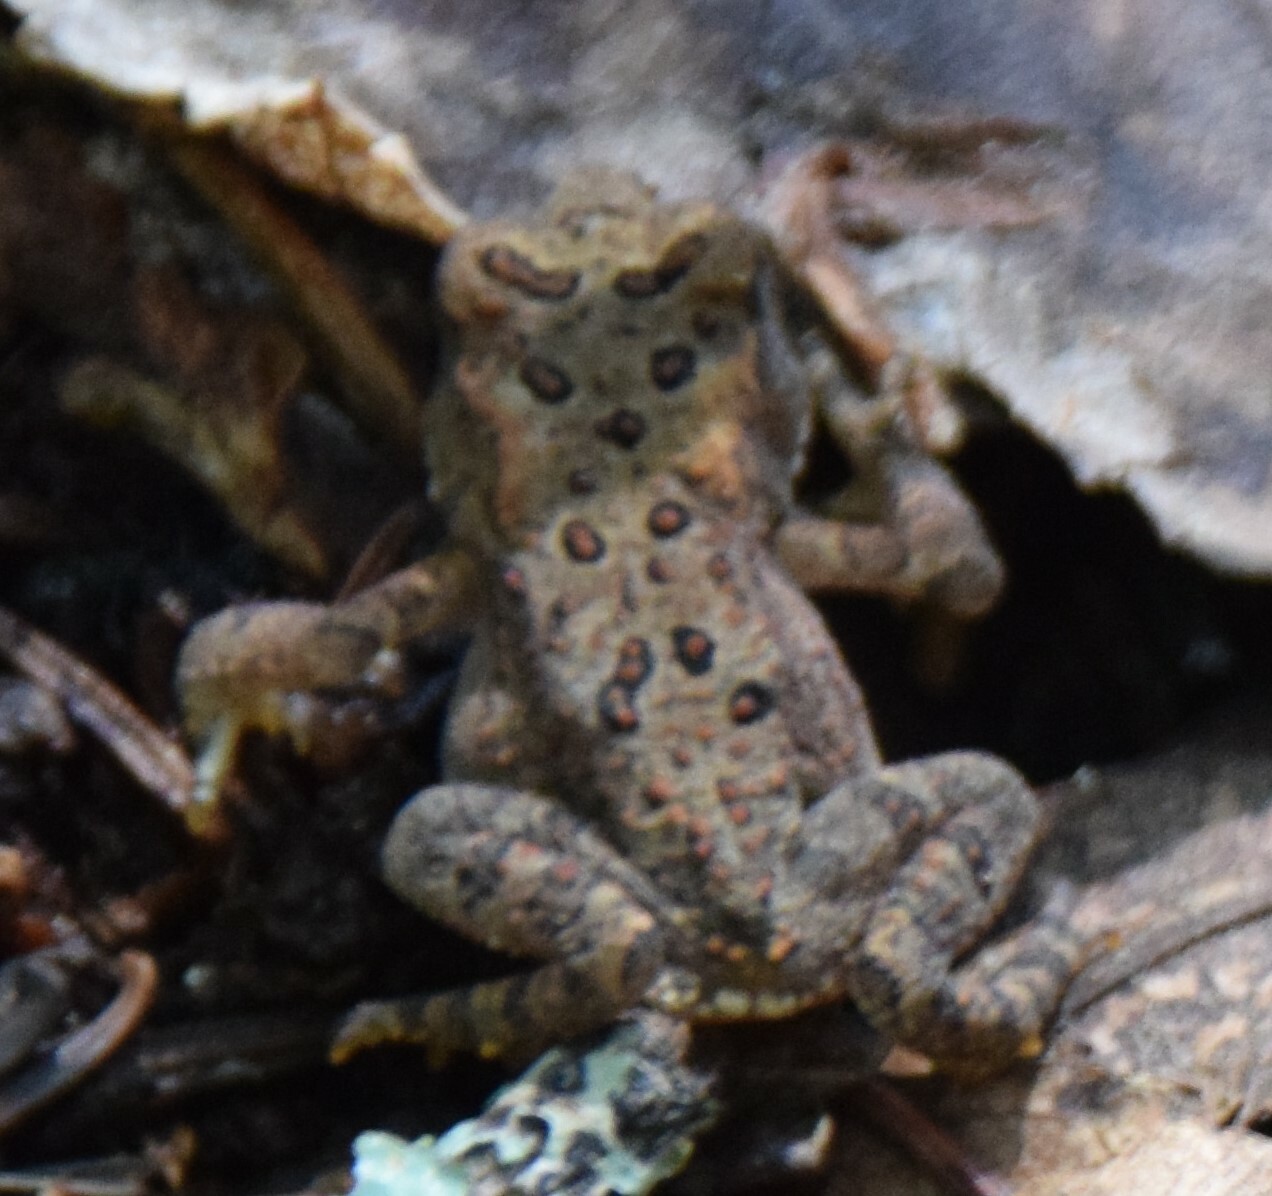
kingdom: Animalia
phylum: Chordata
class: Amphibia
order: Anura
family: Bufonidae
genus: Anaxyrus
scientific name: Anaxyrus americanus
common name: American toad
